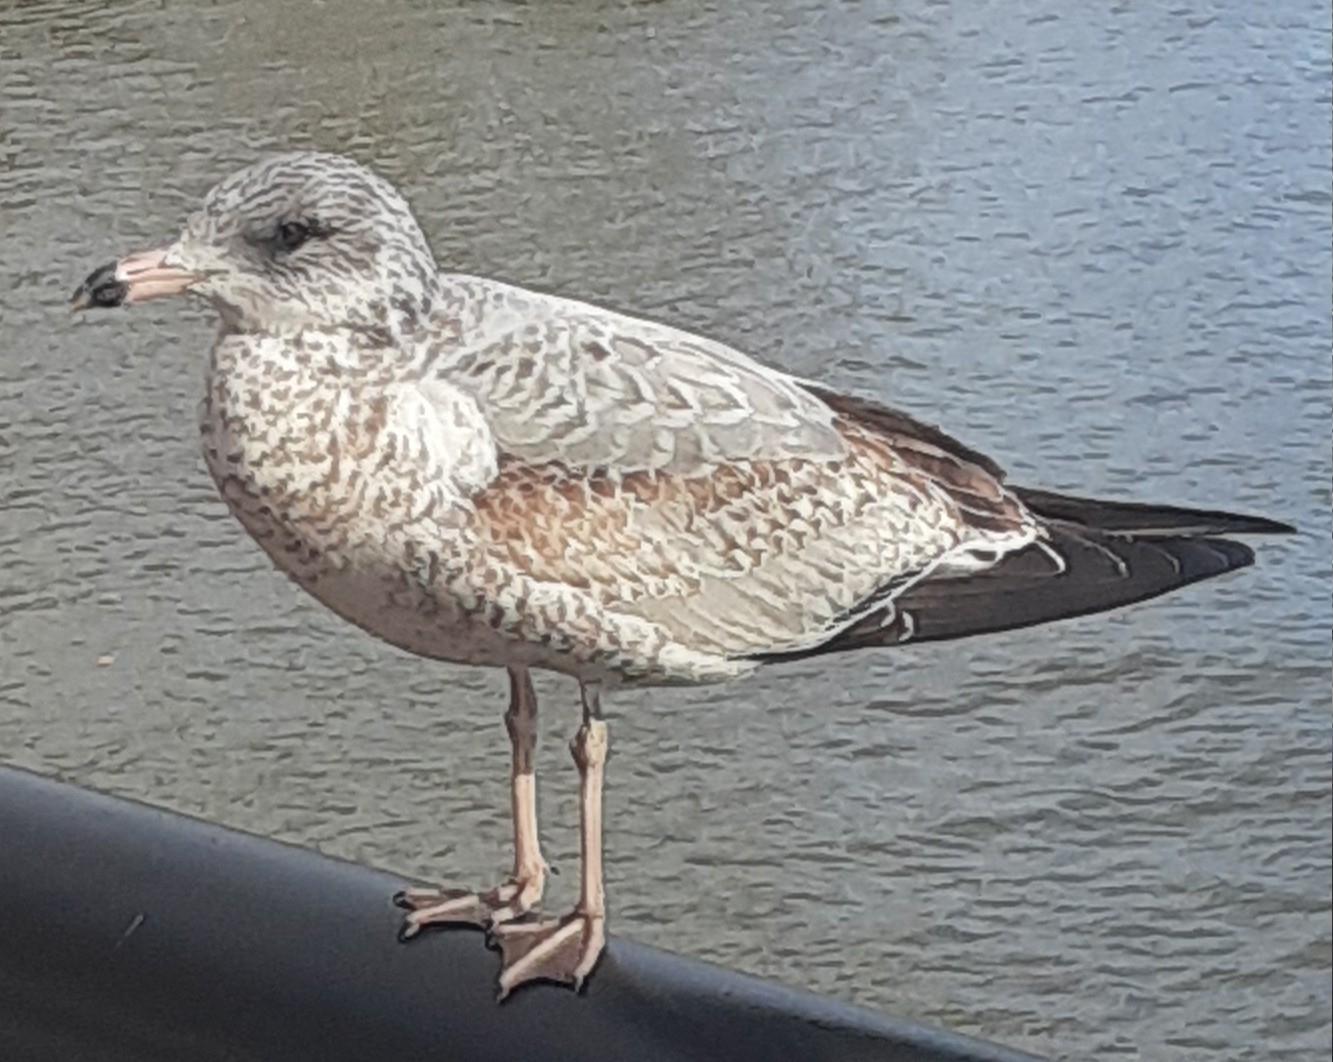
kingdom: Animalia
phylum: Chordata
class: Aves
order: Charadriiformes
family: Laridae
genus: Larus
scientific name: Larus delawarensis
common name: Ring-billed gull
